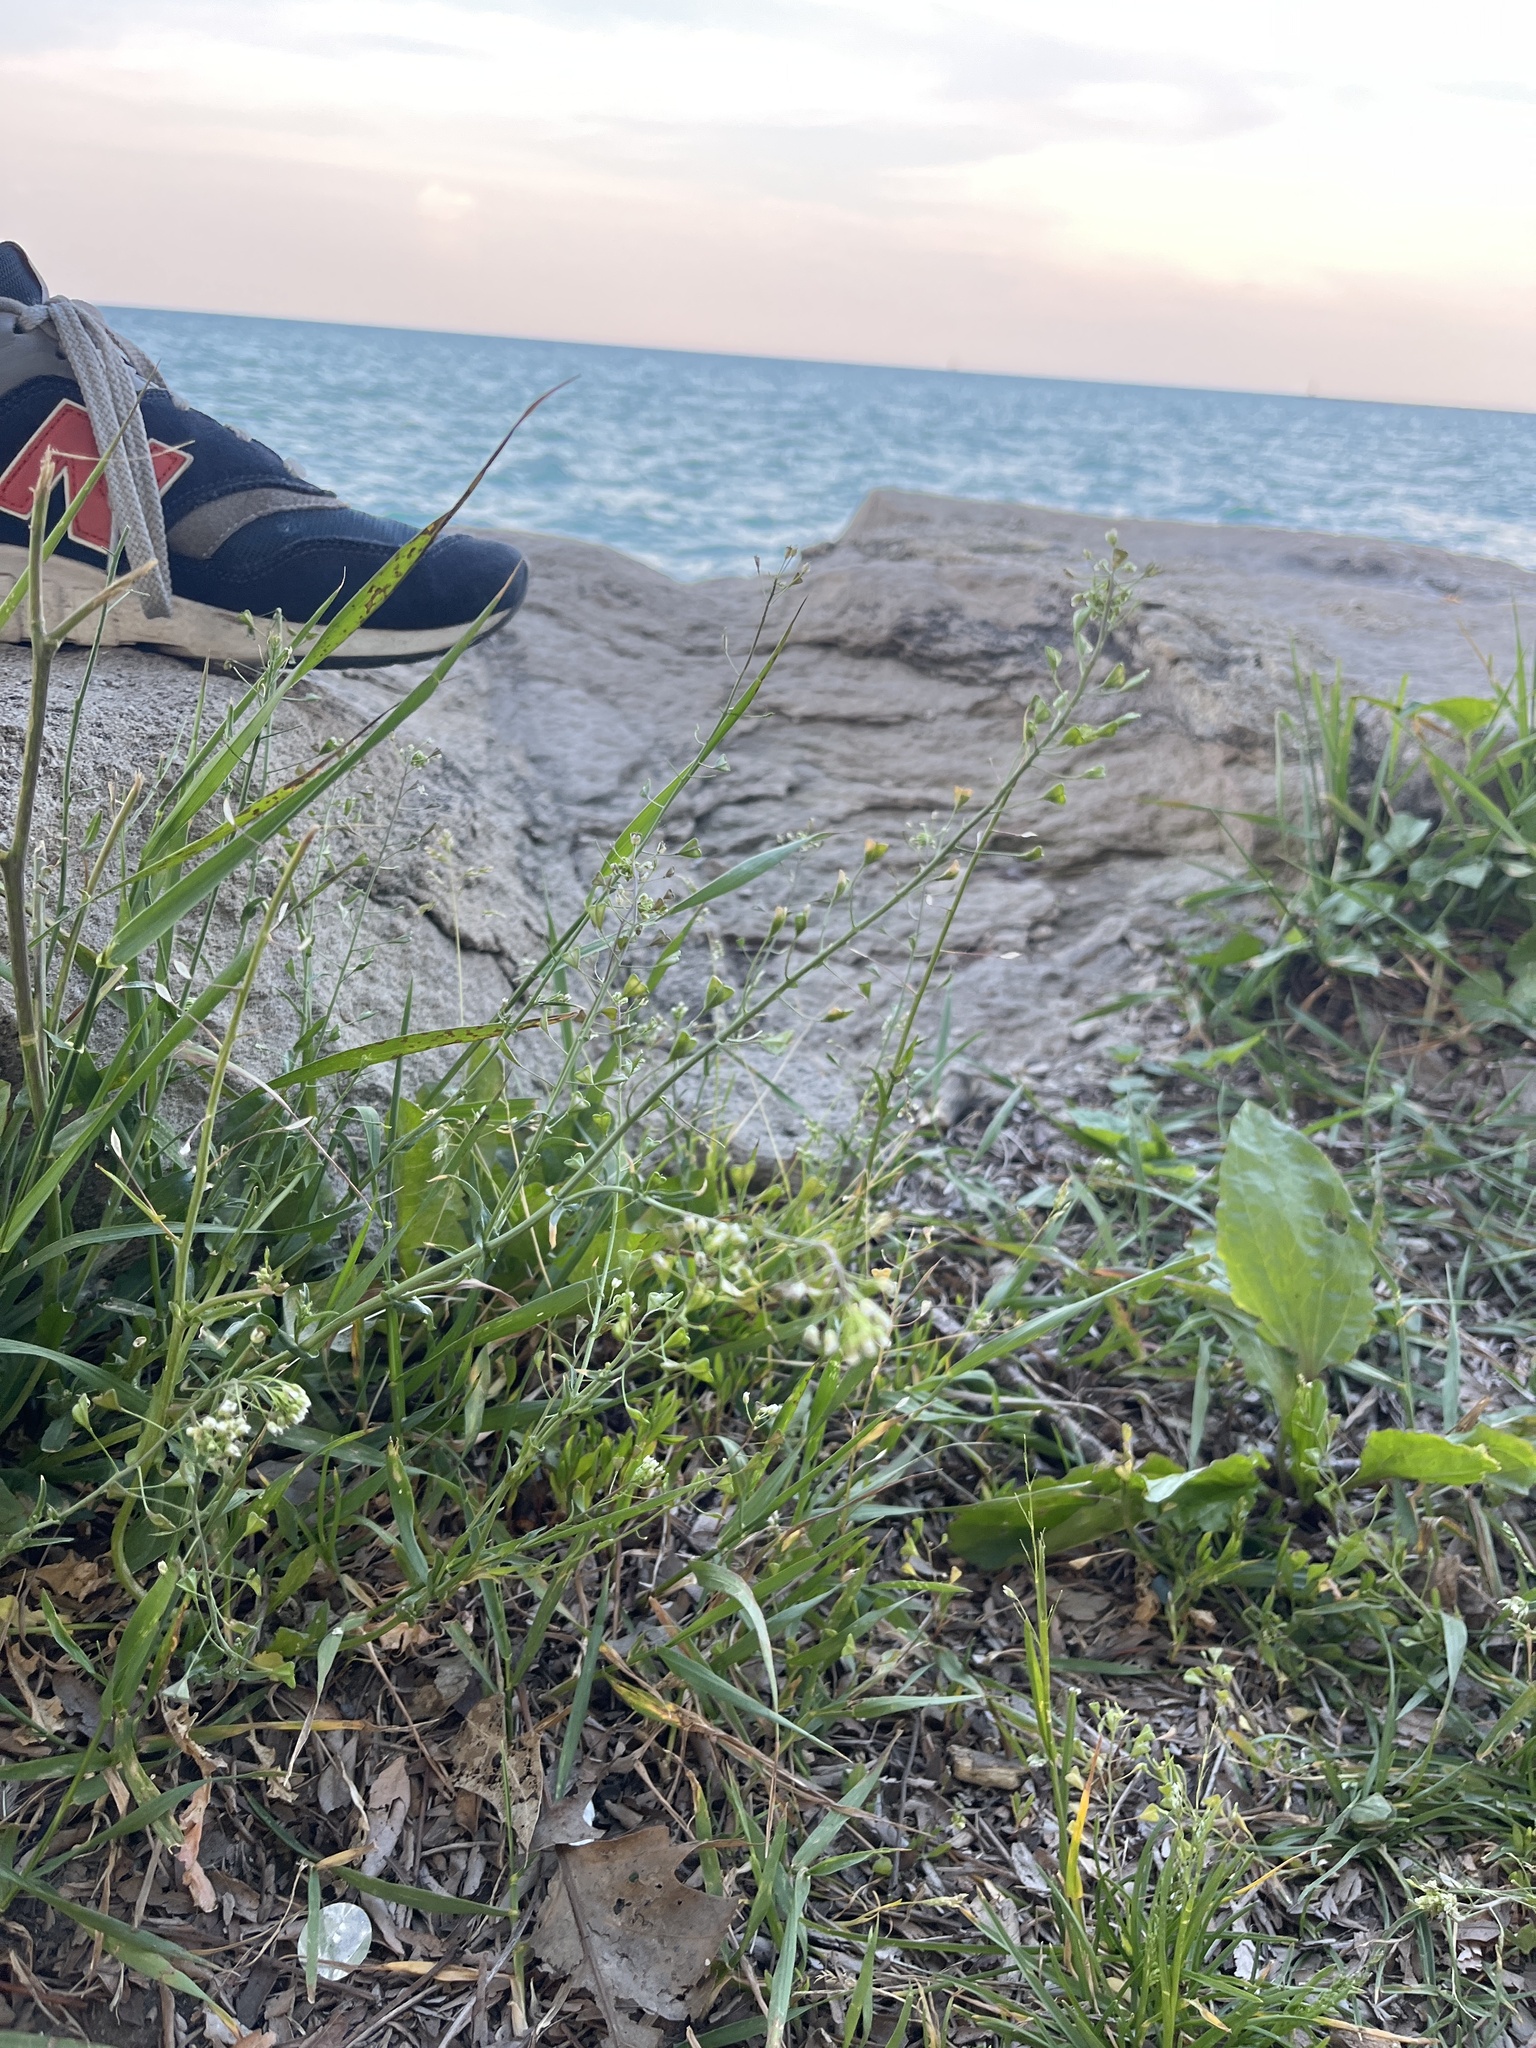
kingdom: Plantae
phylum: Tracheophyta
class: Magnoliopsida
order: Brassicales
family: Brassicaceae
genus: Capsella
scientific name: Capsella bursa-pastoris
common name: Shepherd's purse
